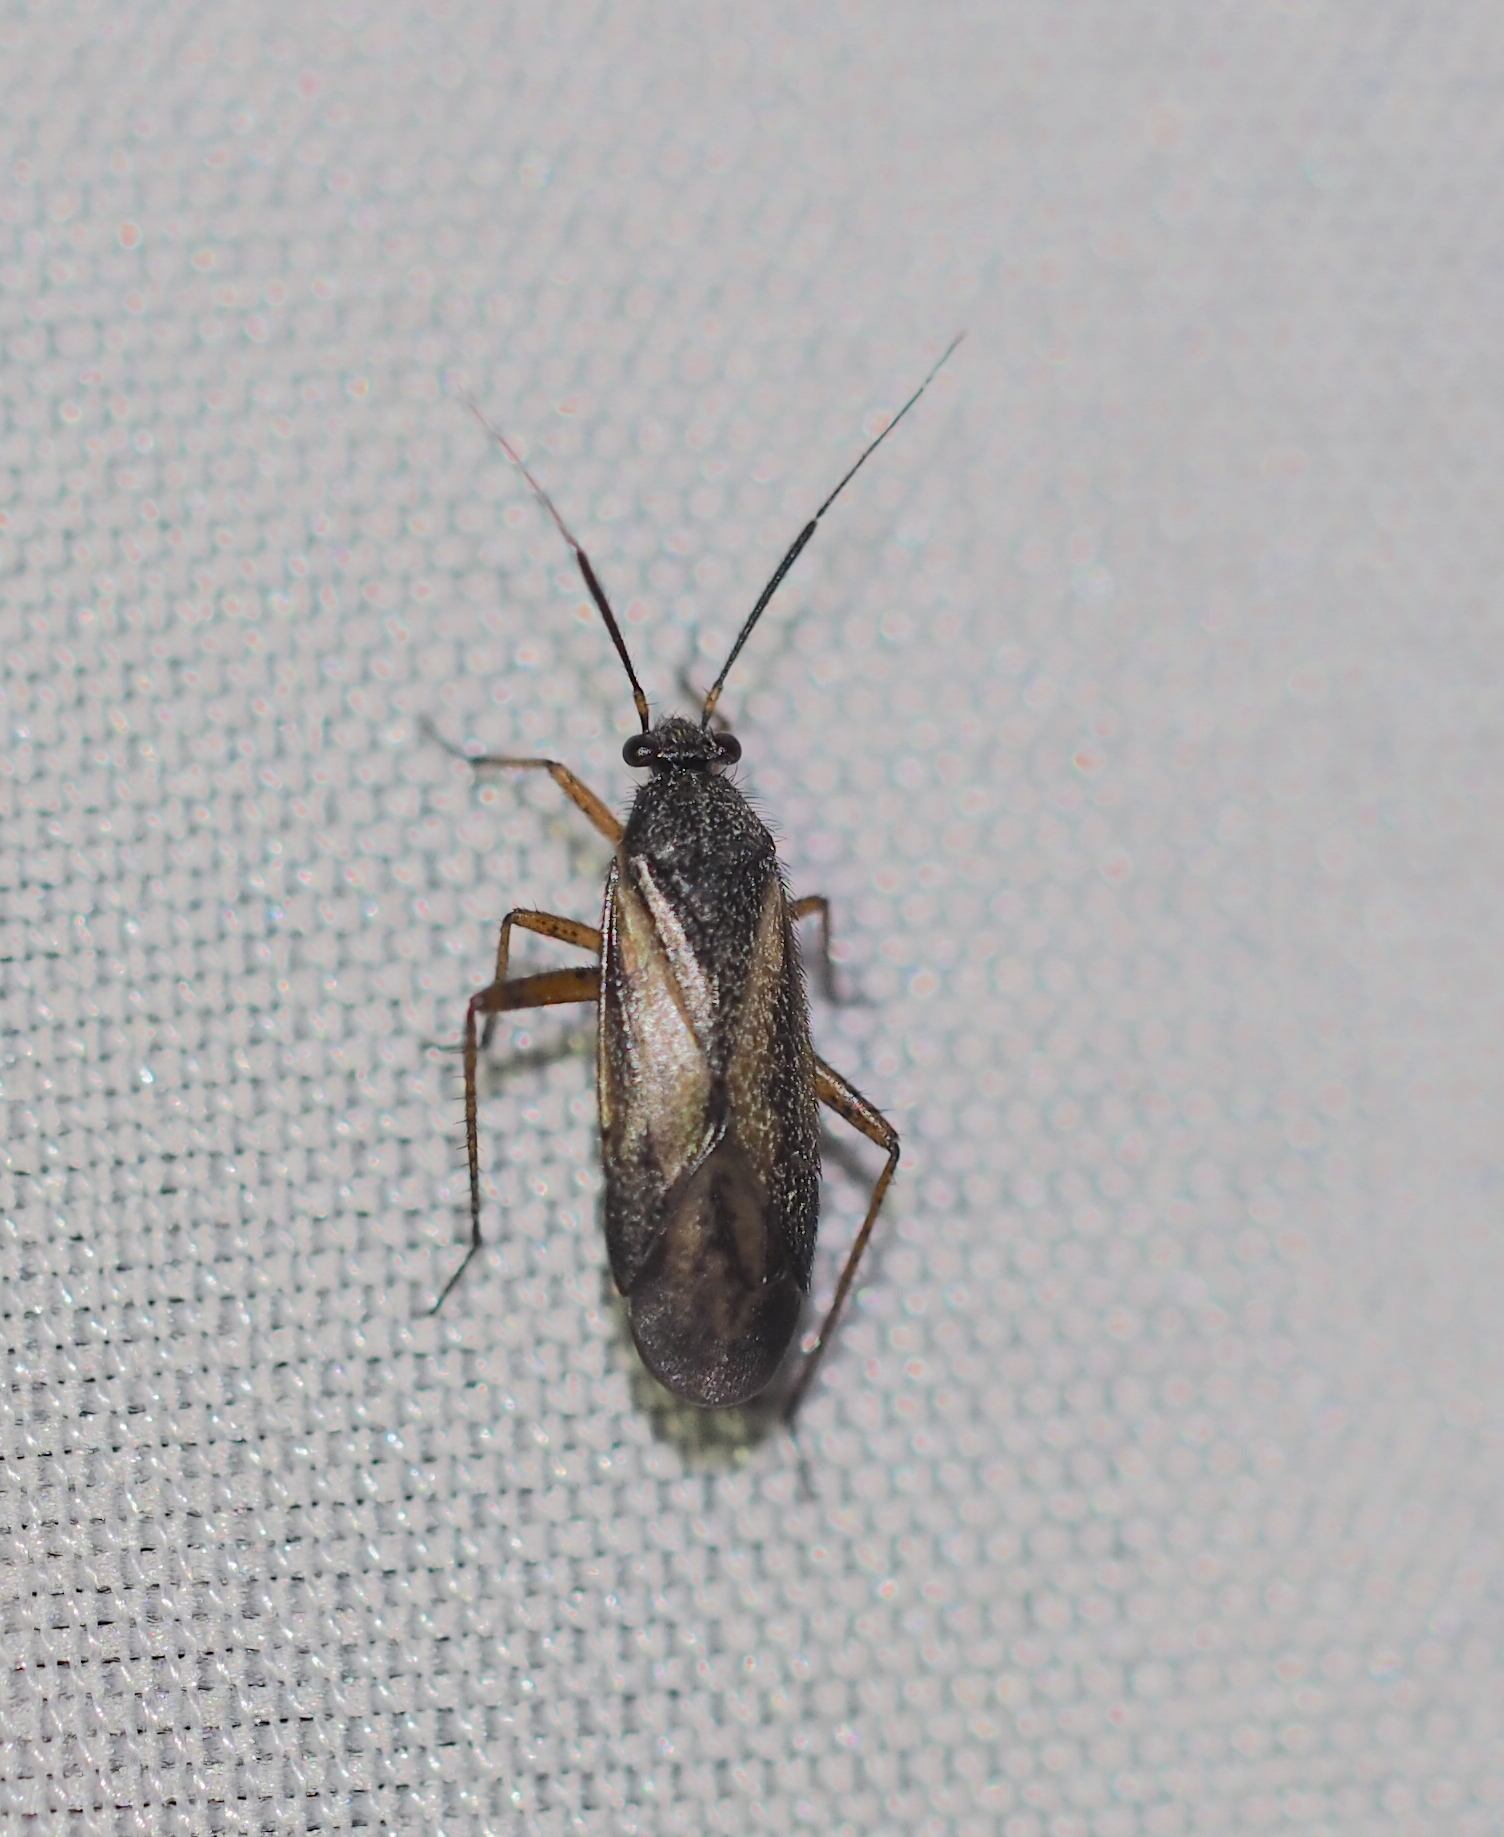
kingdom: Animalia
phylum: Arthropoda
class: Insecta
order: Hemiptera
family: Miridae
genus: Orthocephalus
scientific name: Orthocephalus vittipennis
